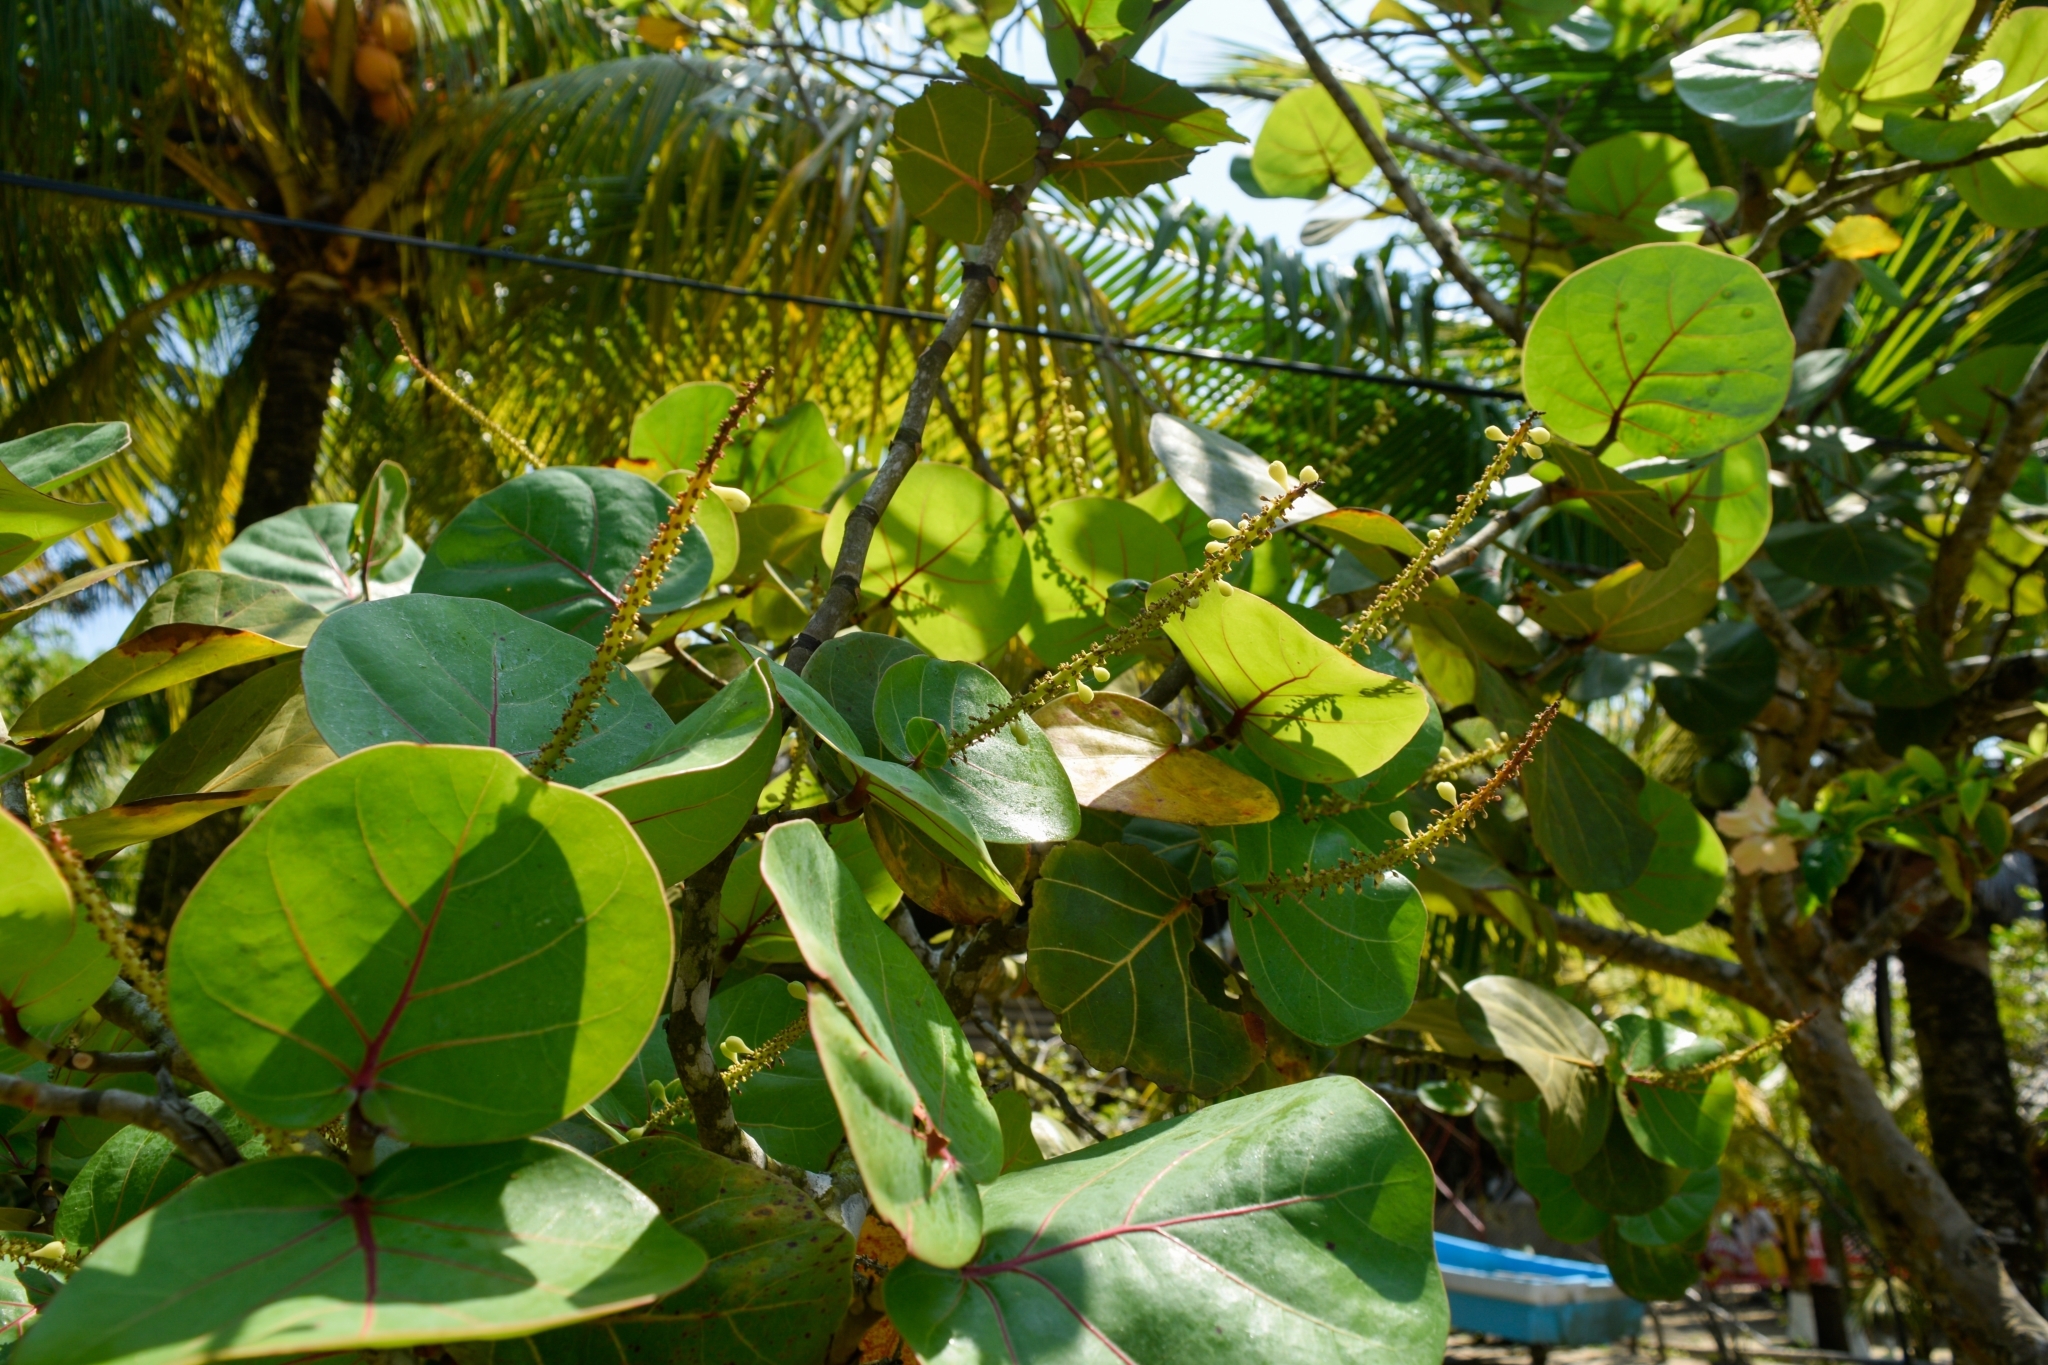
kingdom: Plantae
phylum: Tracheophyta
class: Magnoliopsida
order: Caryophyllales
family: Polygonaceae
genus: Coccoloba
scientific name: Coccoloba uvifera
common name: Seagrape
